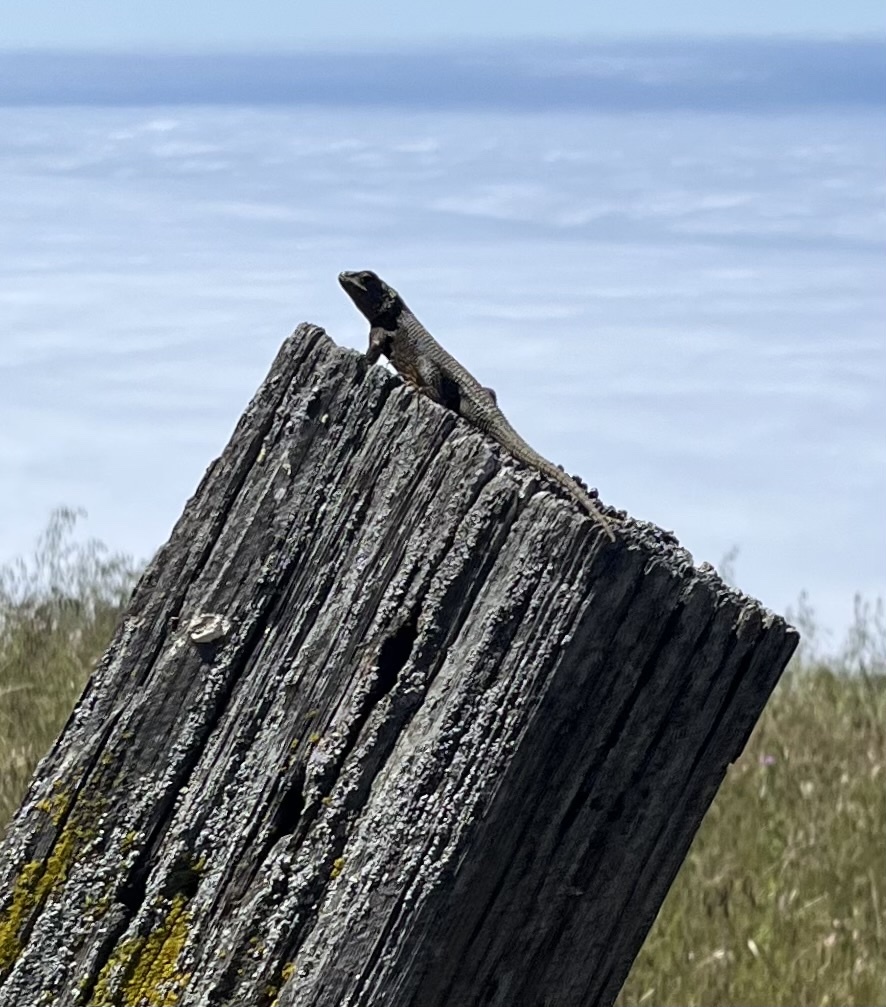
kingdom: Animalia
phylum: Chordata
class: Squamata
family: Phrynosomatidae
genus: Sceloporus
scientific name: Sceloporus occidentalis
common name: Western fence lizard
